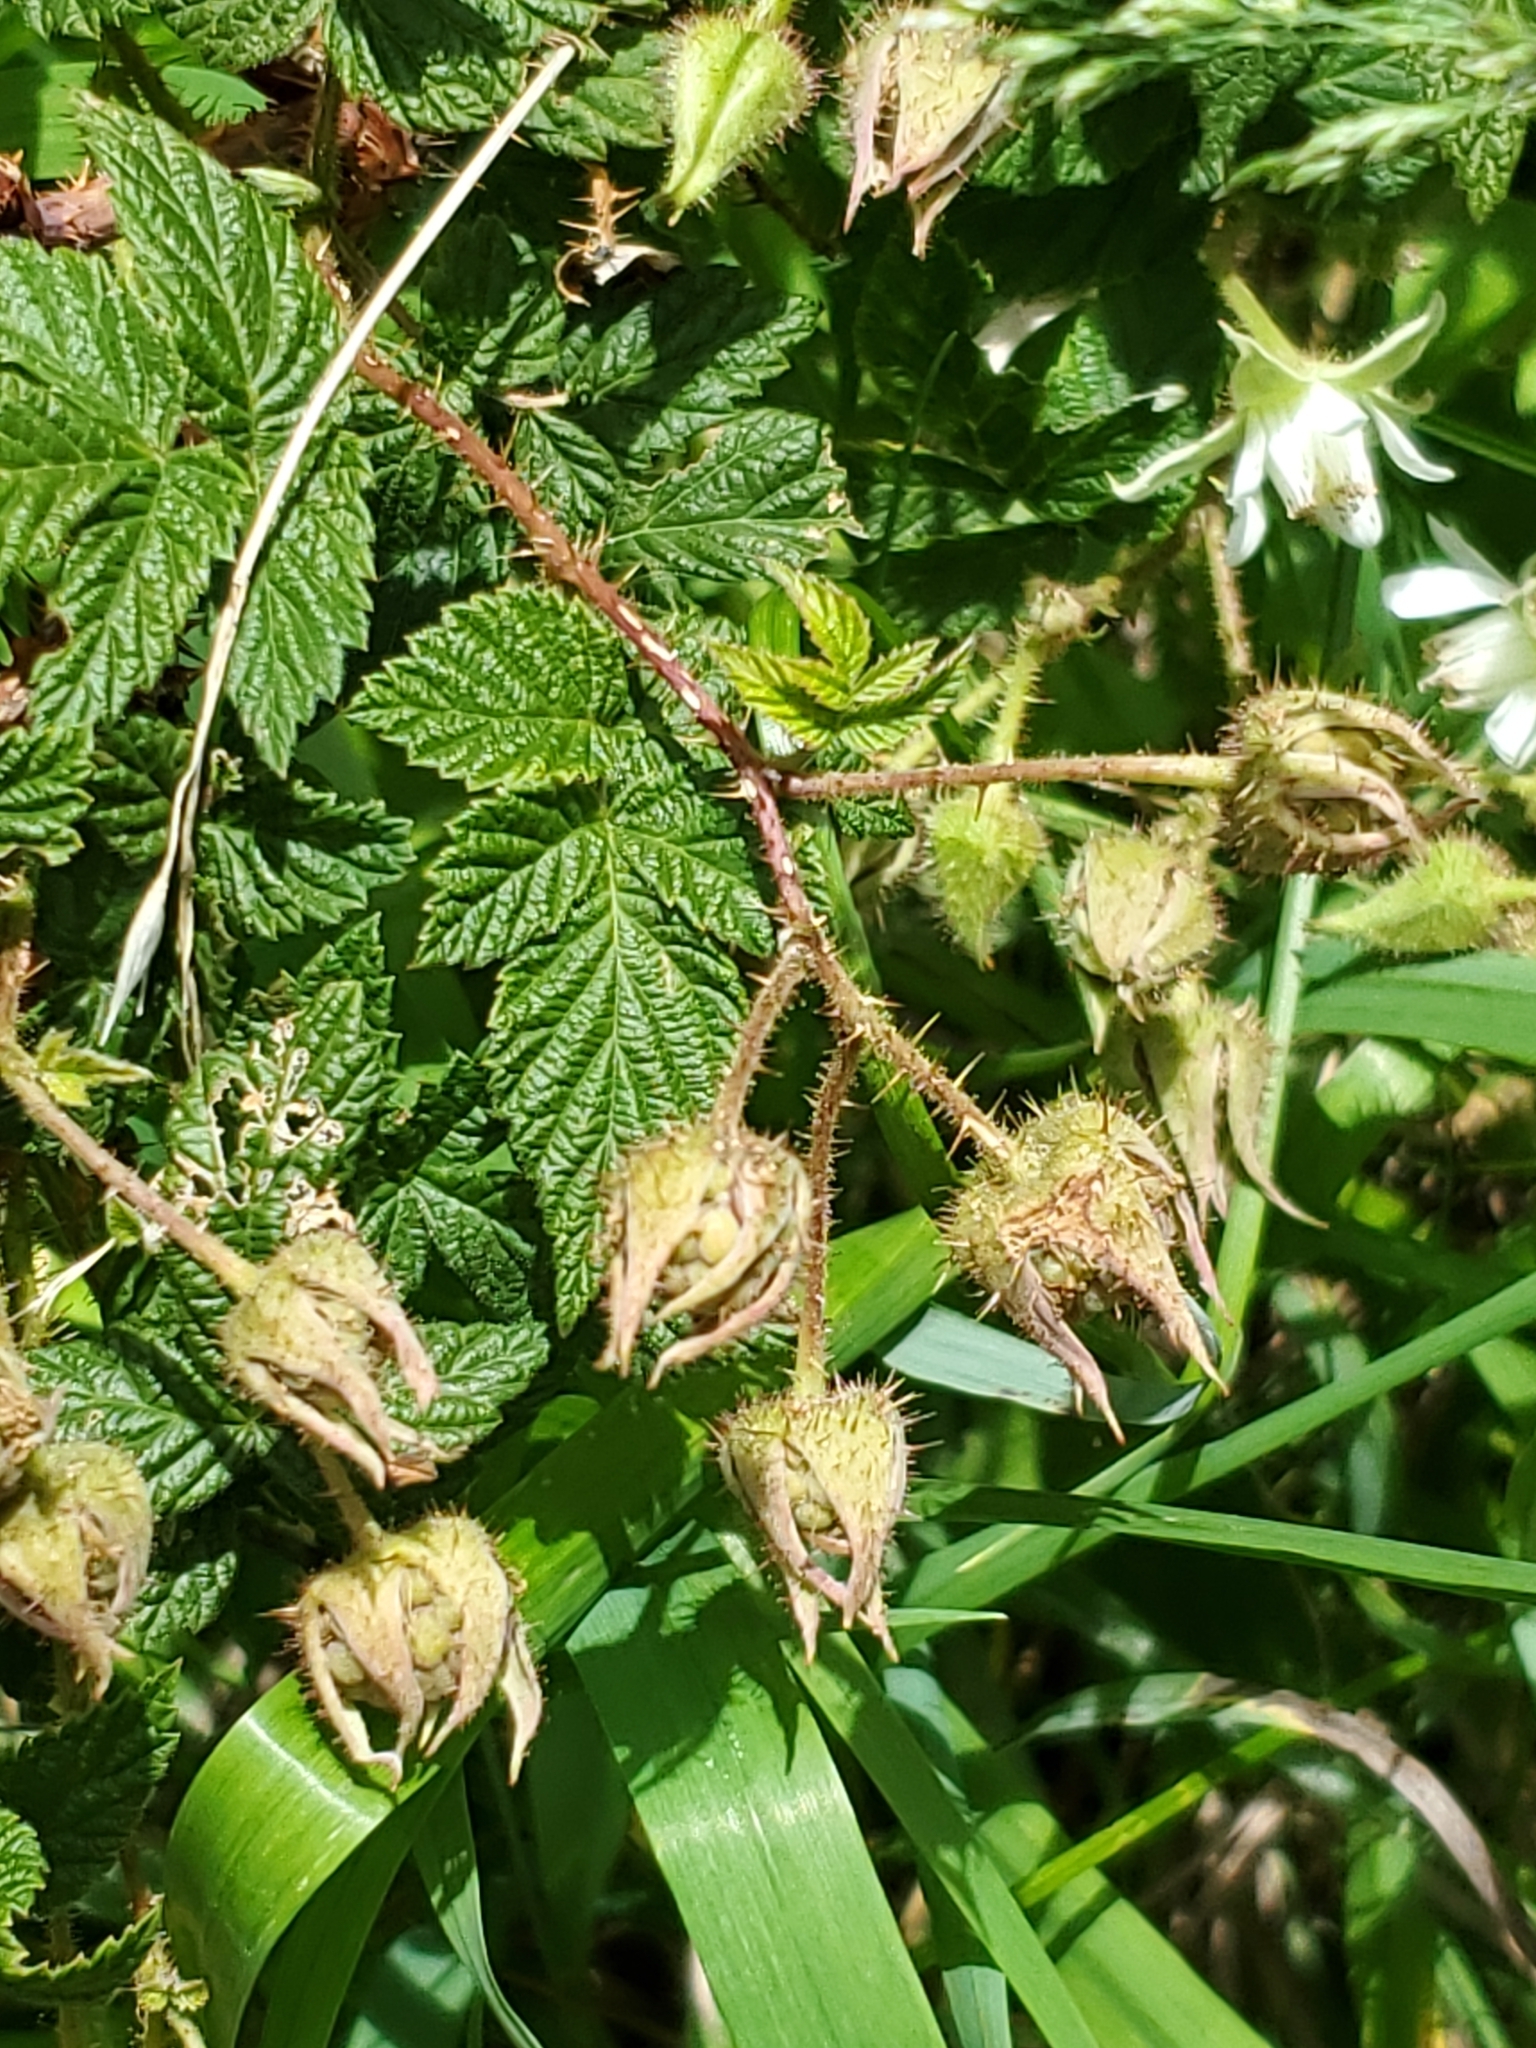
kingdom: Plantae
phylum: Tracheophyta
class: Magnoliopsida
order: Rosales
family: Rosaceae
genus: Rubus
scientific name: Rubus idaeus
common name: Raspberry
